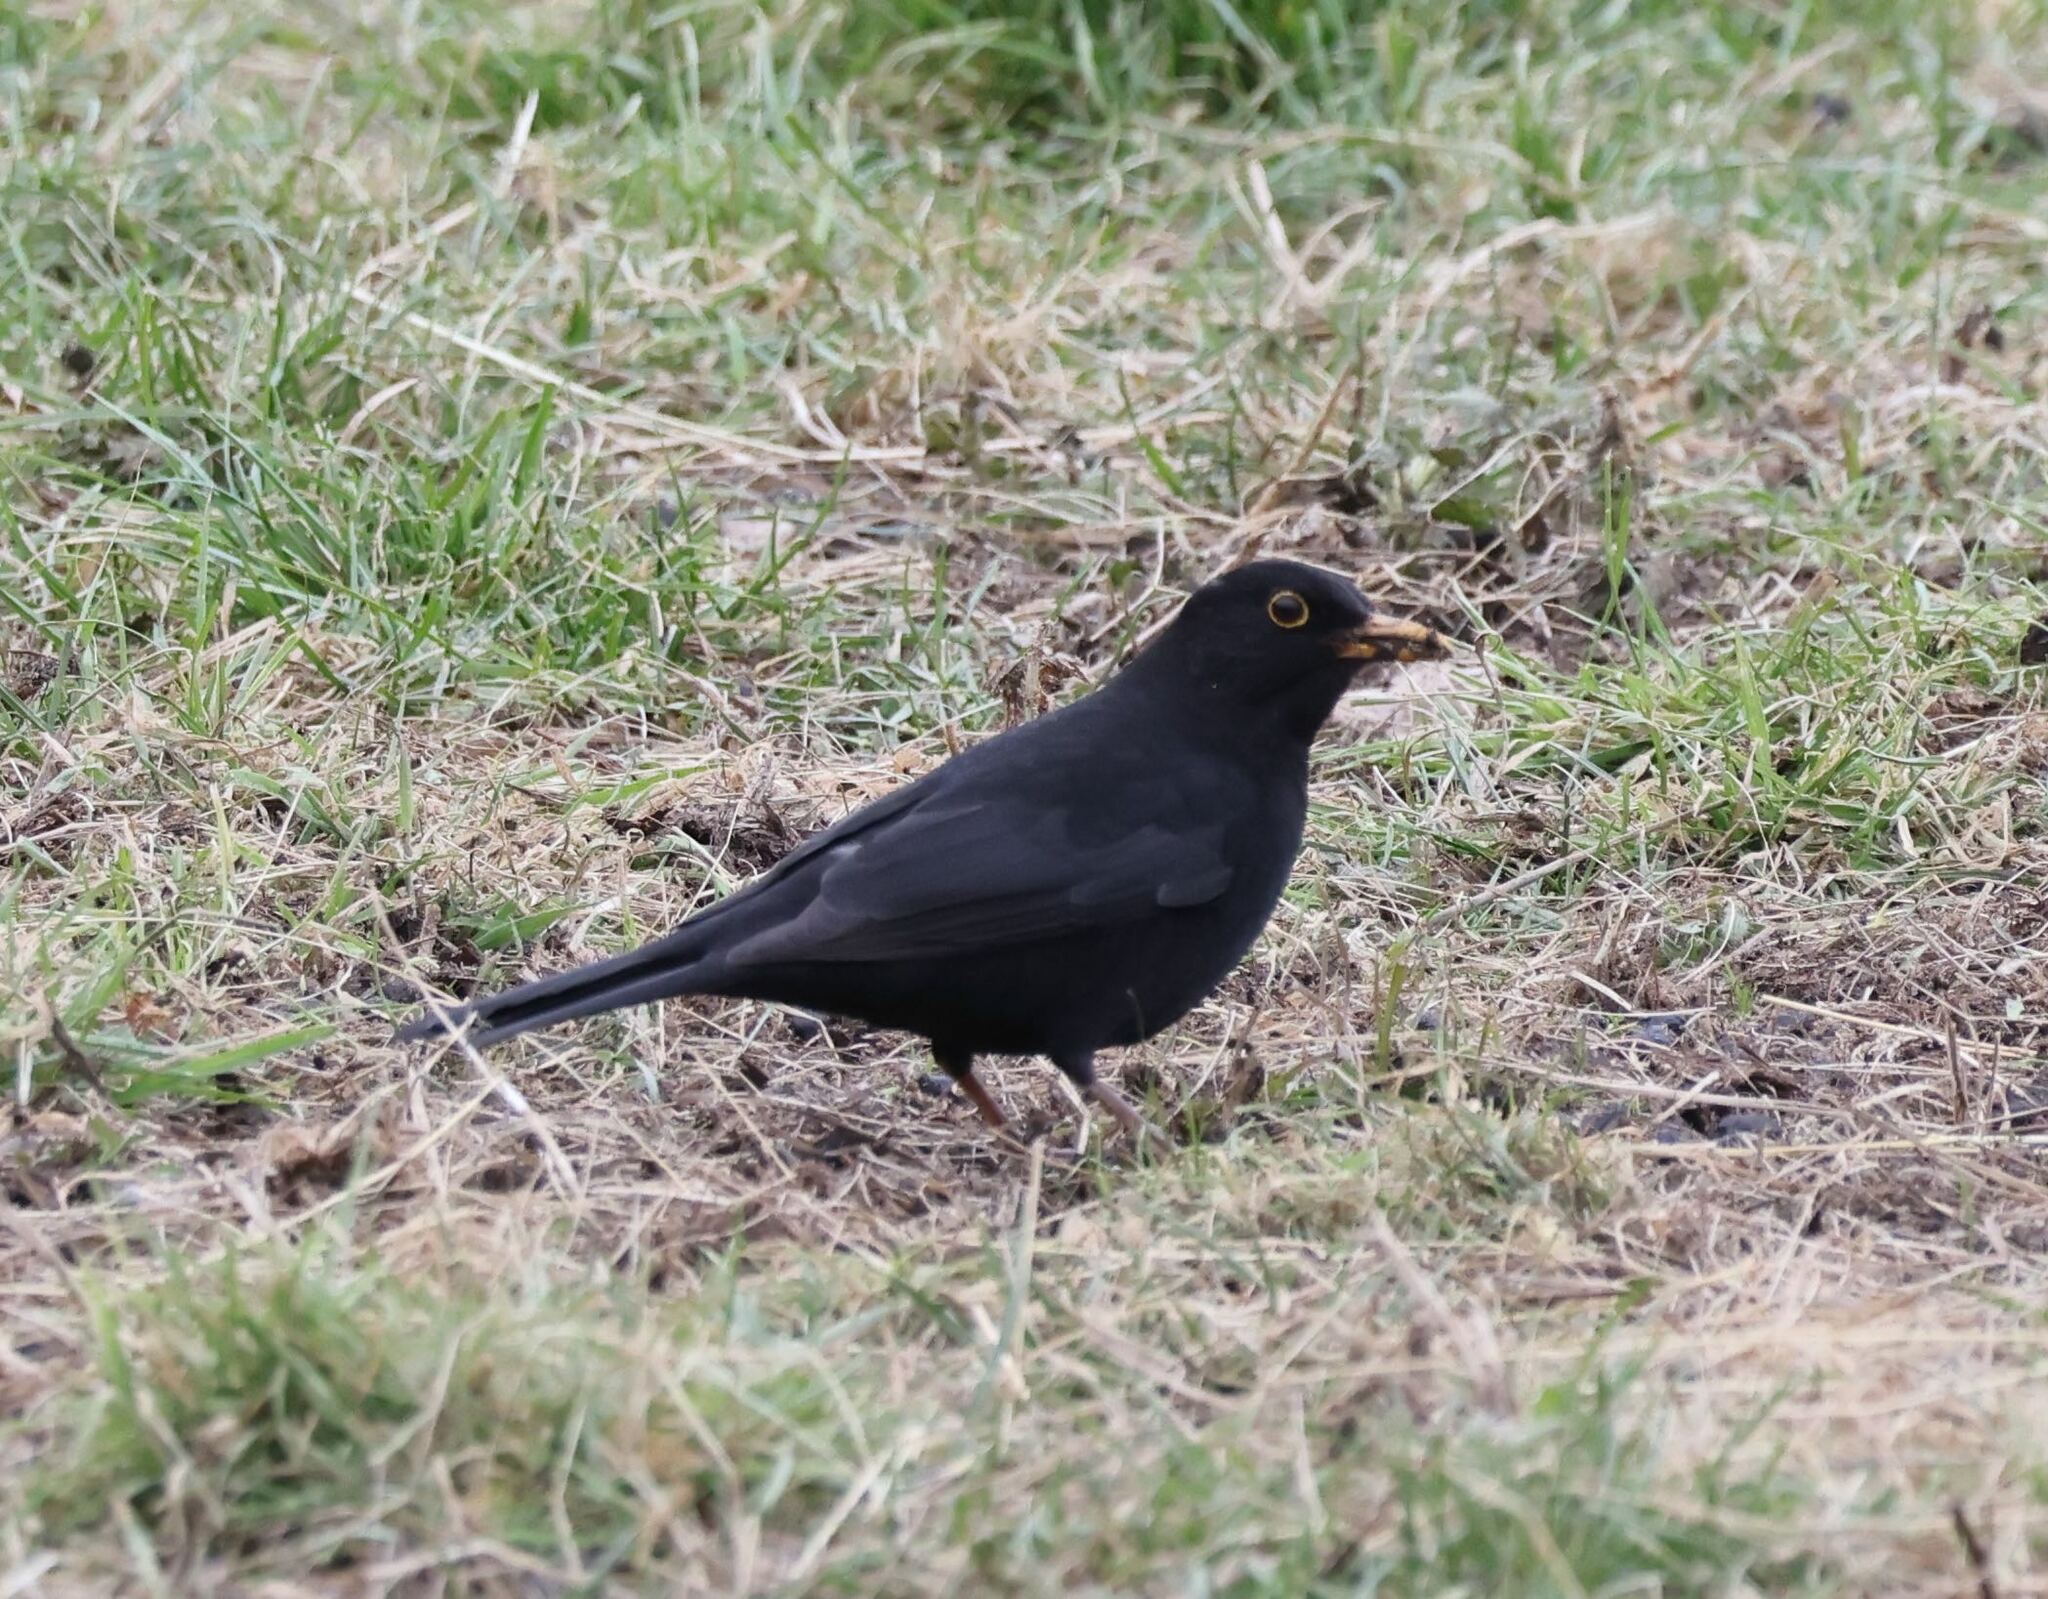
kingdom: Animalia
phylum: Chordata
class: Aves
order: Passeriformes
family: Turdidae
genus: Turdus
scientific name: Turdus merula
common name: Common blackbird
